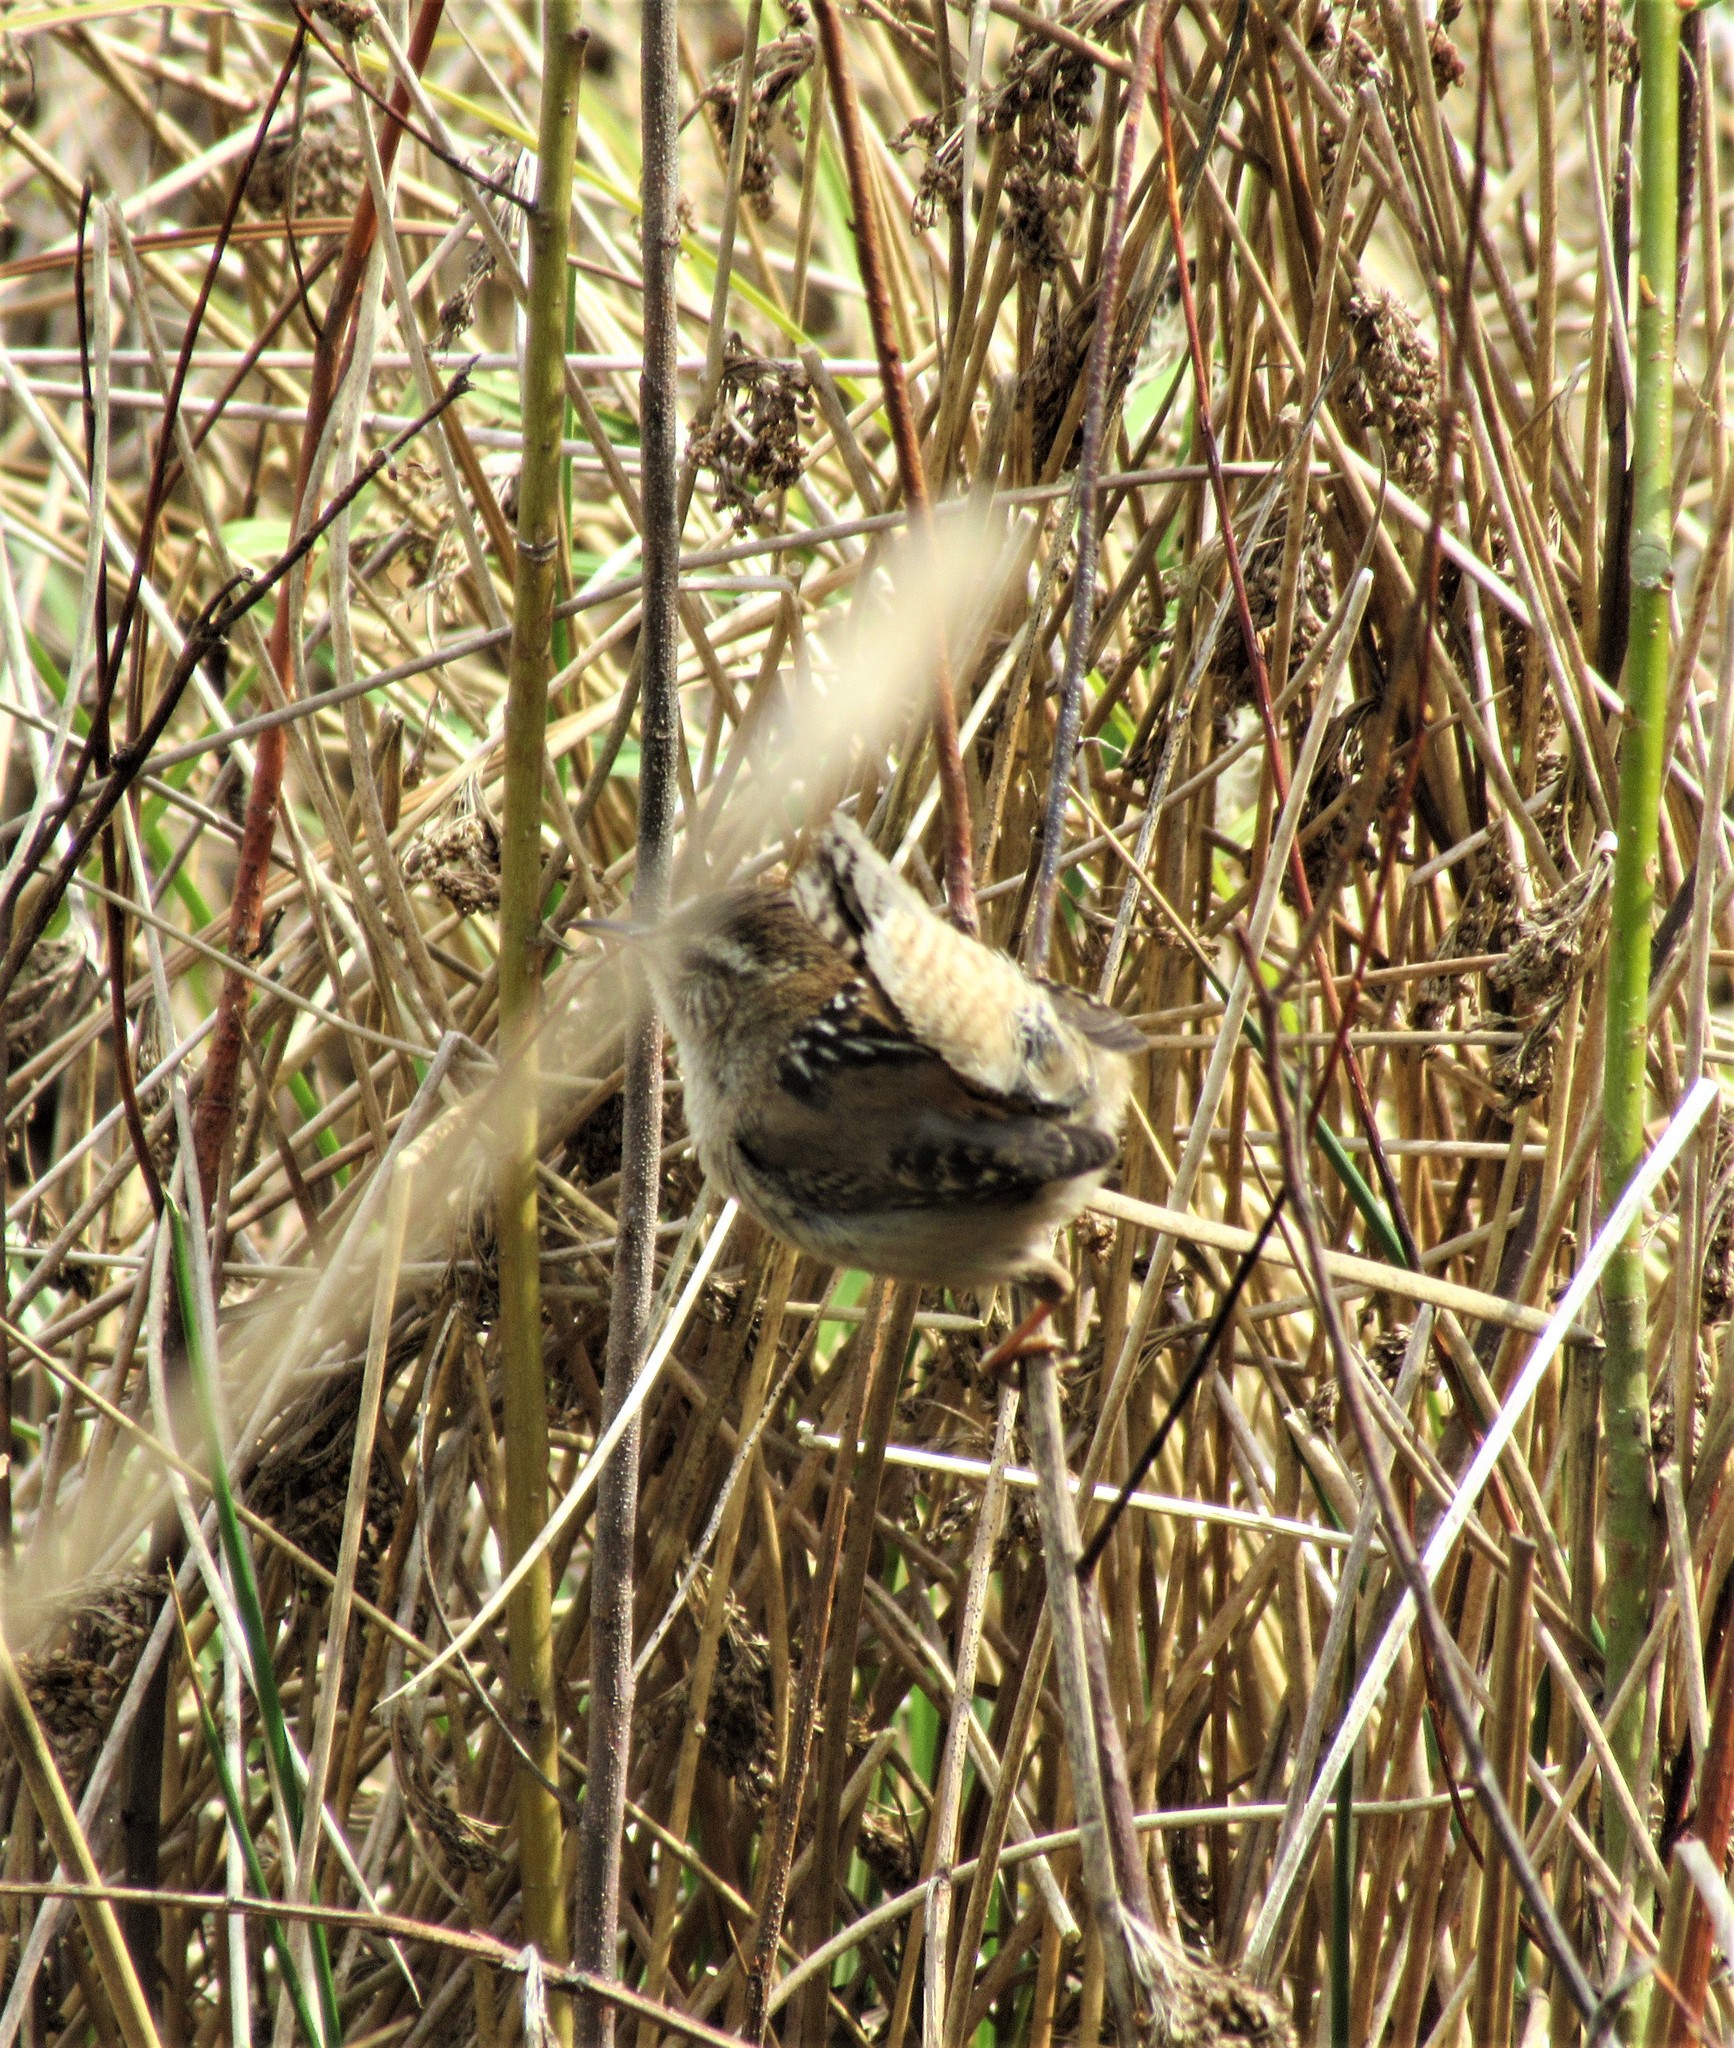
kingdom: Animalia
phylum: Chordata
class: Aves
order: Passeriformes
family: Troglodytidae
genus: Cistothorus
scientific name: Cistothorus palustris
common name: Marsh wren
